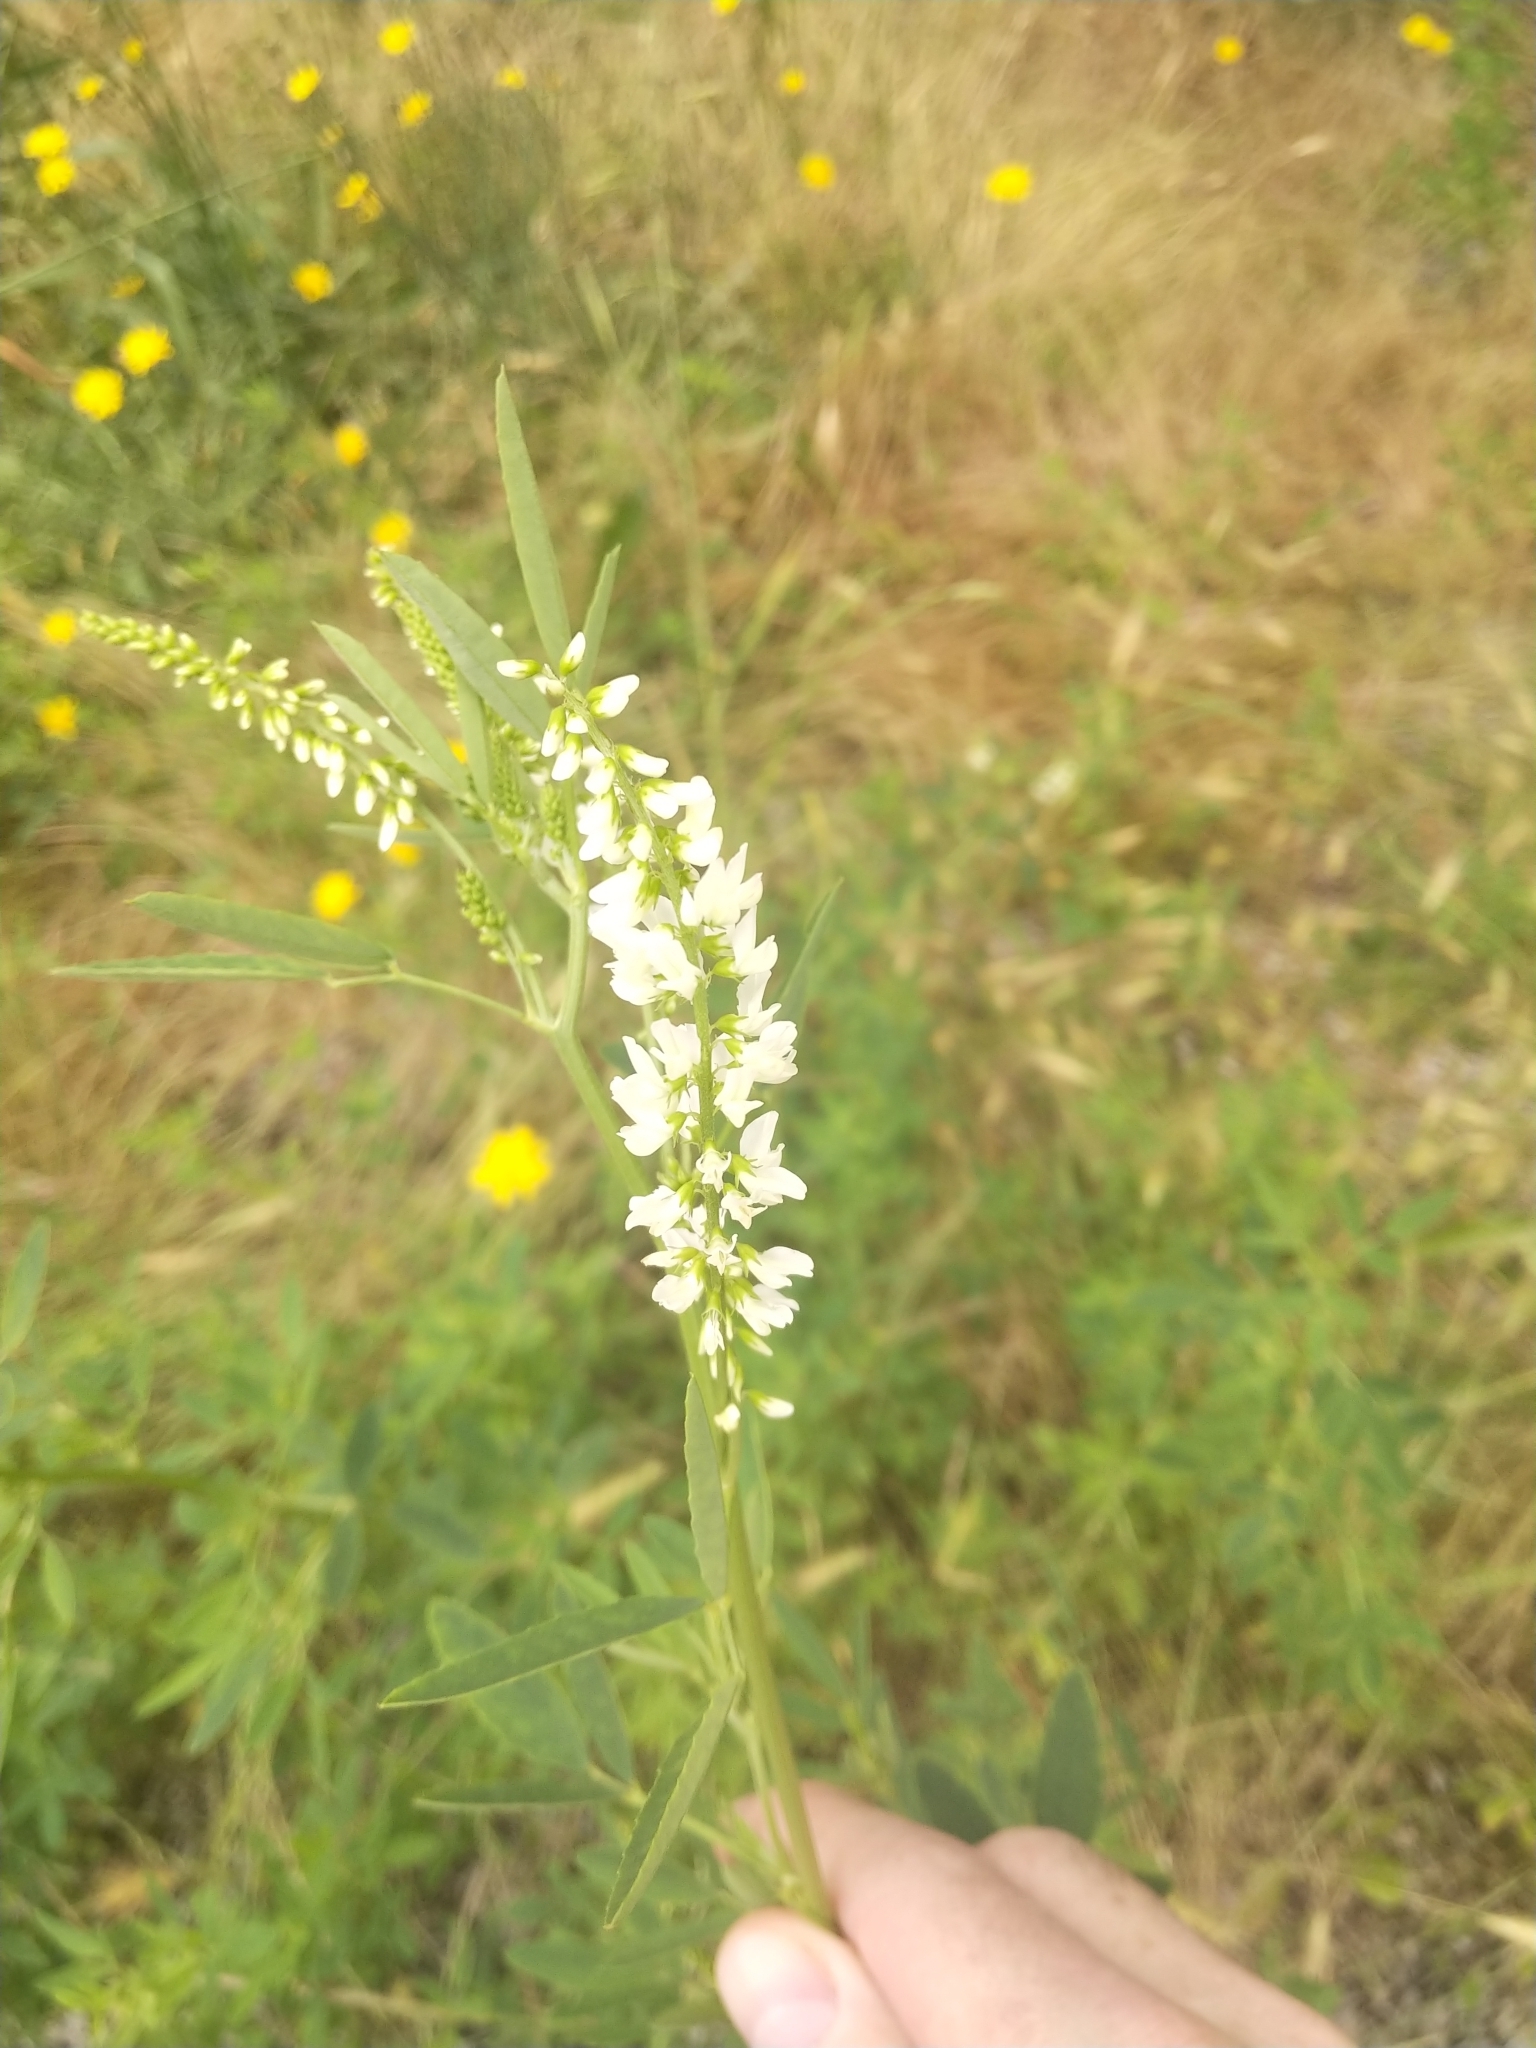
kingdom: Plantae
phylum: Tracheophyta
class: Magnoliopsida
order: Fabales
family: Fabaceae
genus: Melilotus
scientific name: Melilotus albus
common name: White melilot
